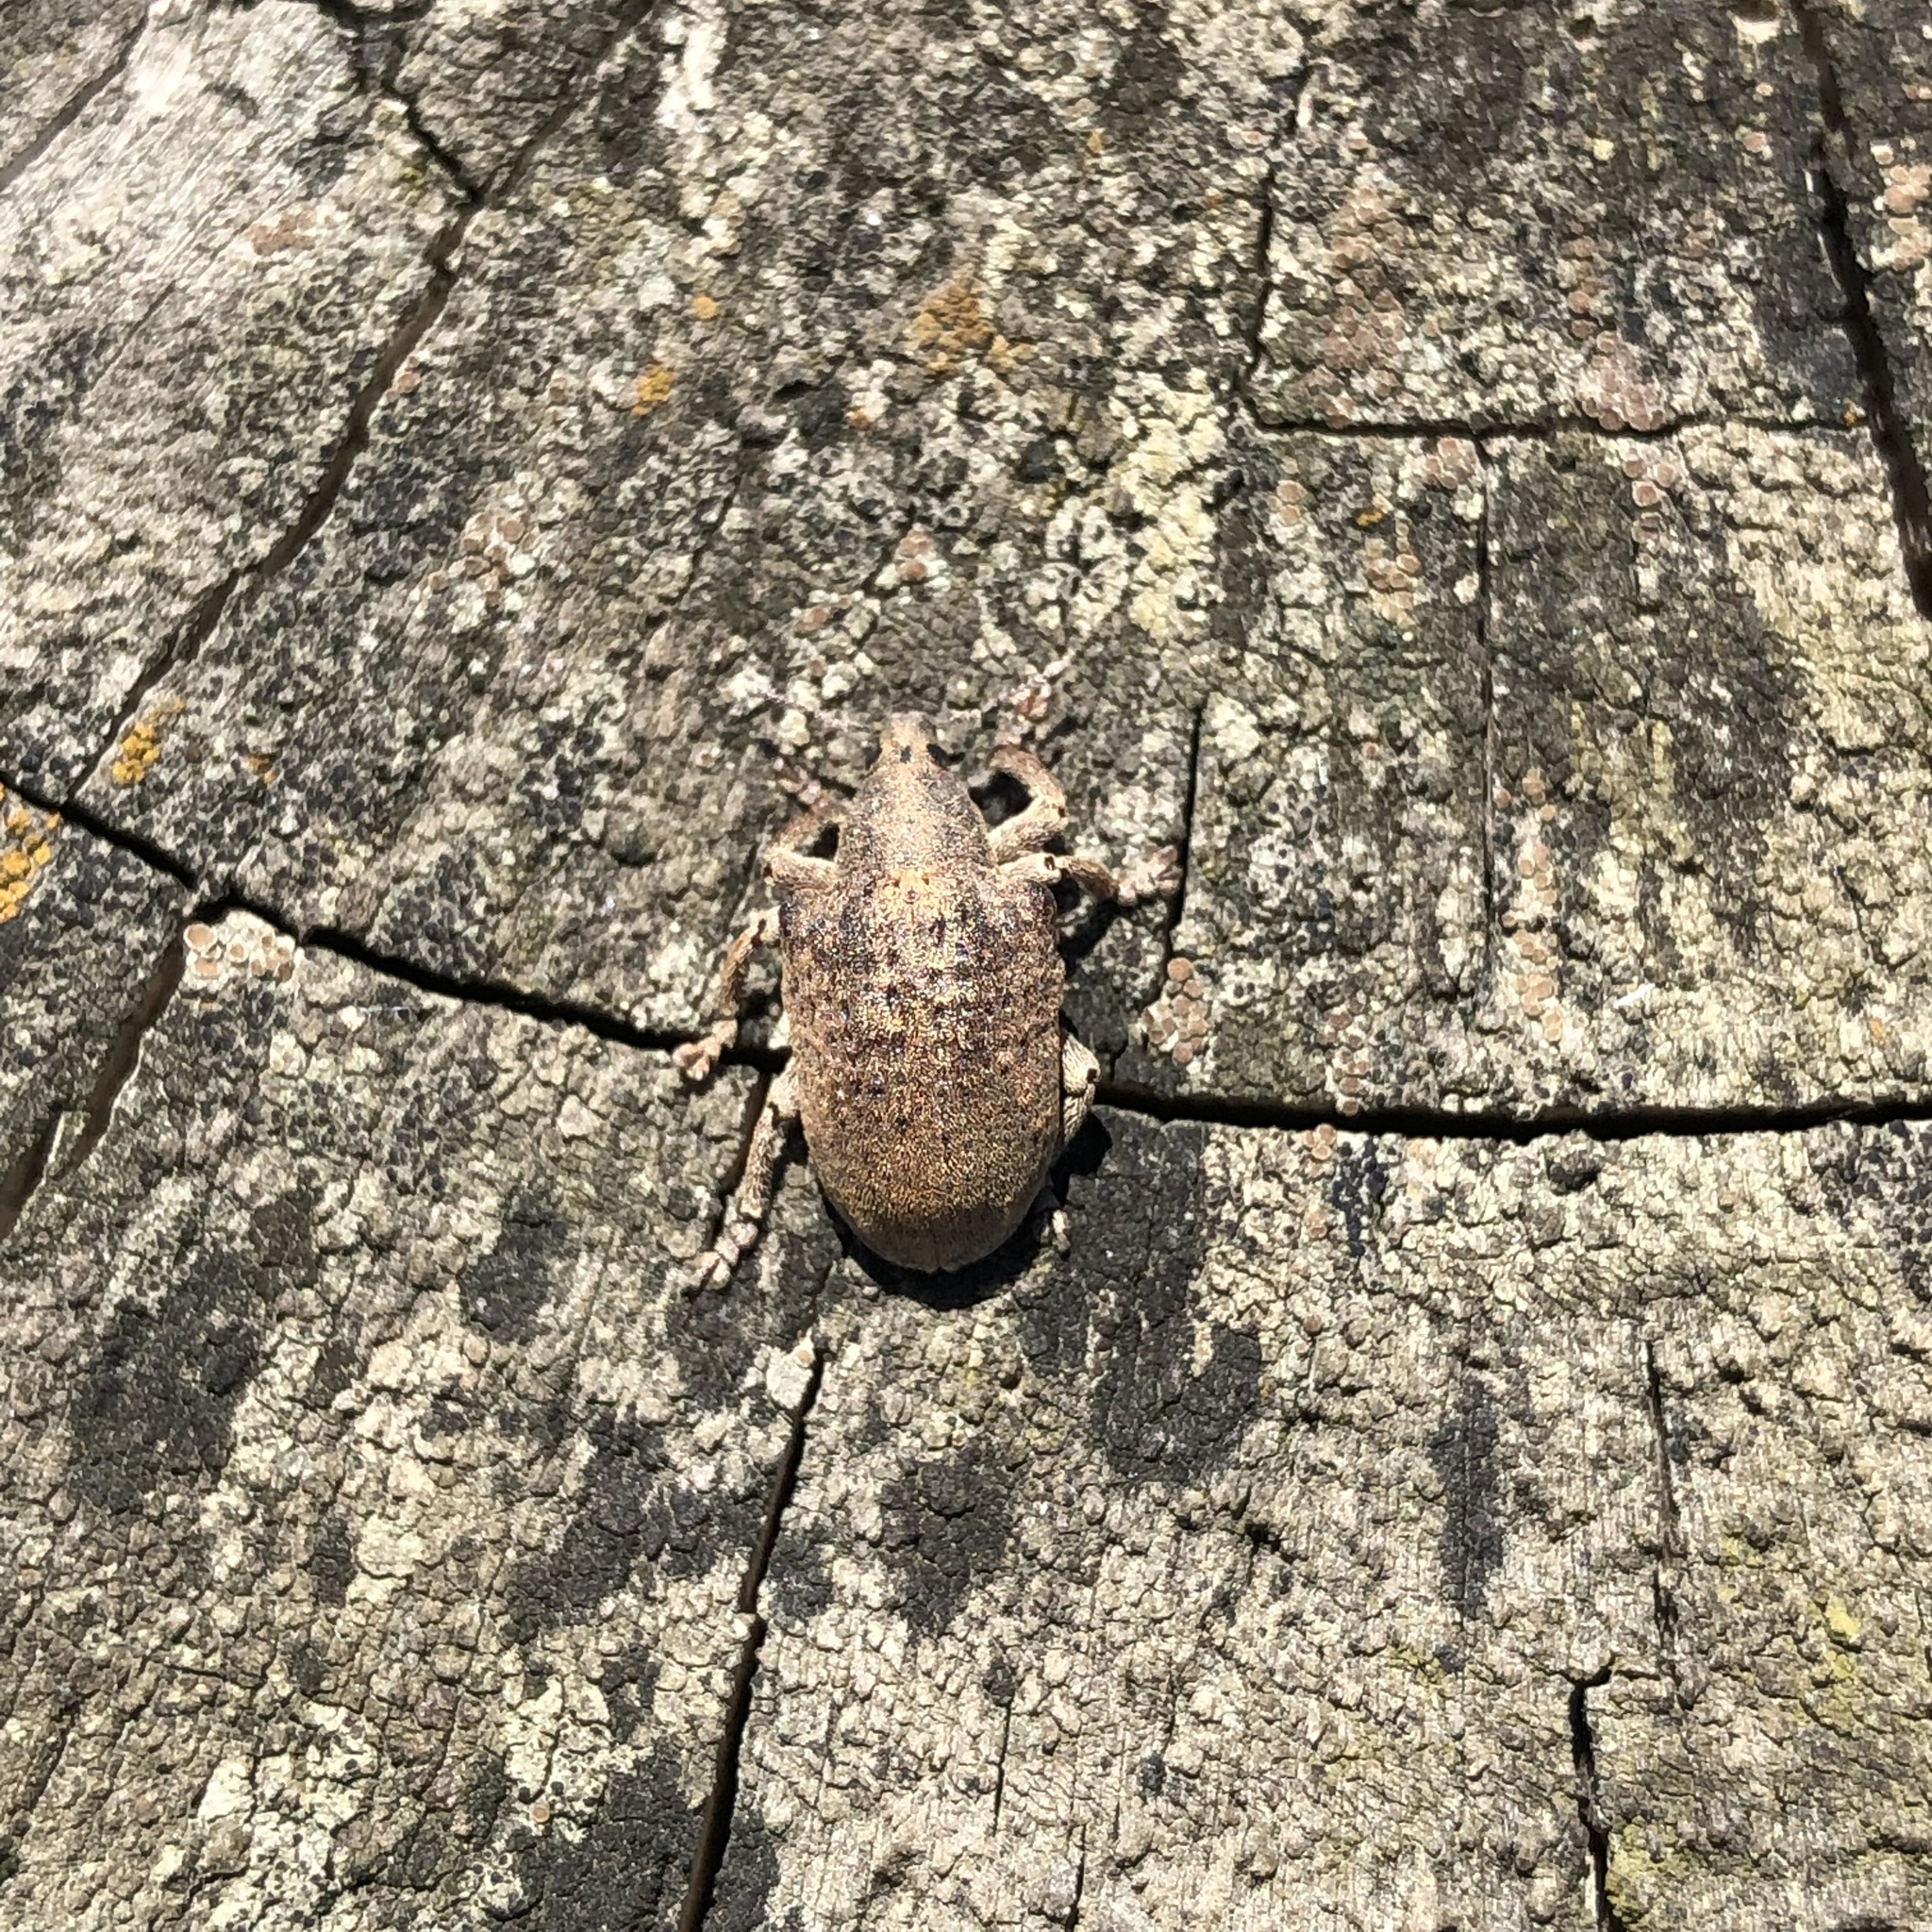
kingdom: Animalia
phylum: Arthropoda
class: Insecta
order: Coleoptera
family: Curculionidae
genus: Gonipterus
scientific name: Gonipterus platensis
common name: Eucalyptus snout beetle
